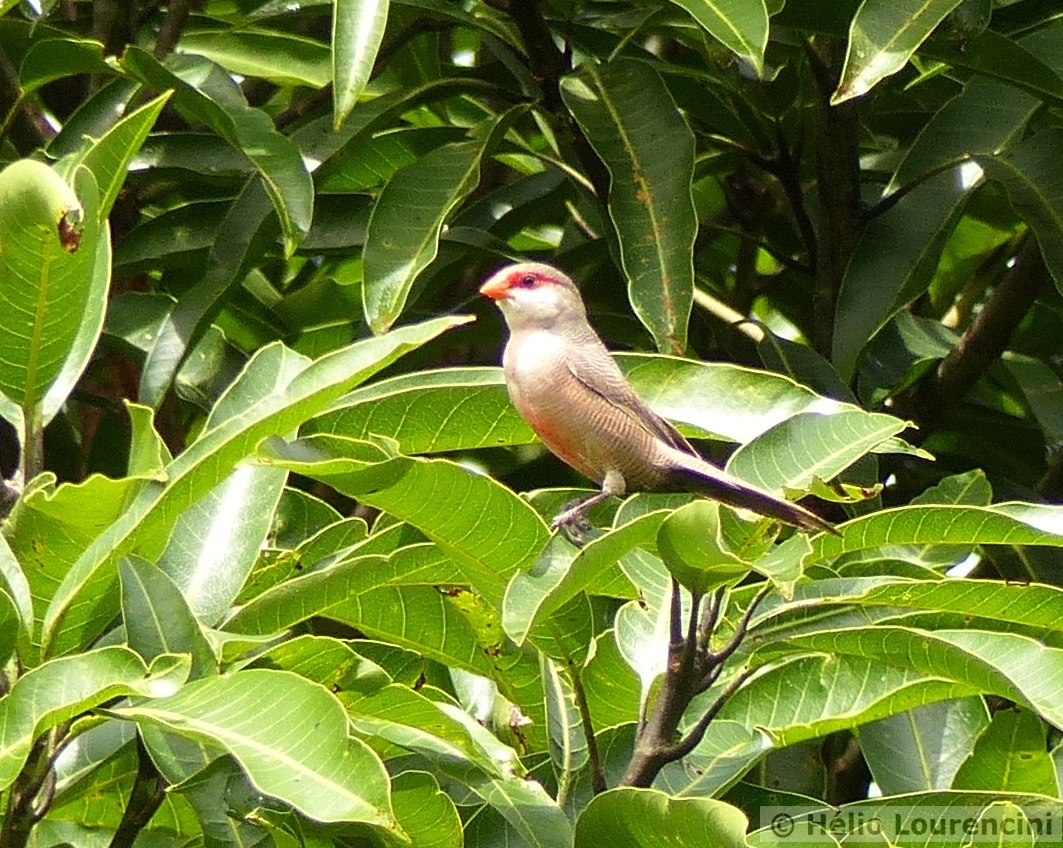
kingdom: Animalia
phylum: Chordata
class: Aves
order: Passeriformes
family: Estrildidae
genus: Estrilda
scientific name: Estrilda astrild
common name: Common waxbill
